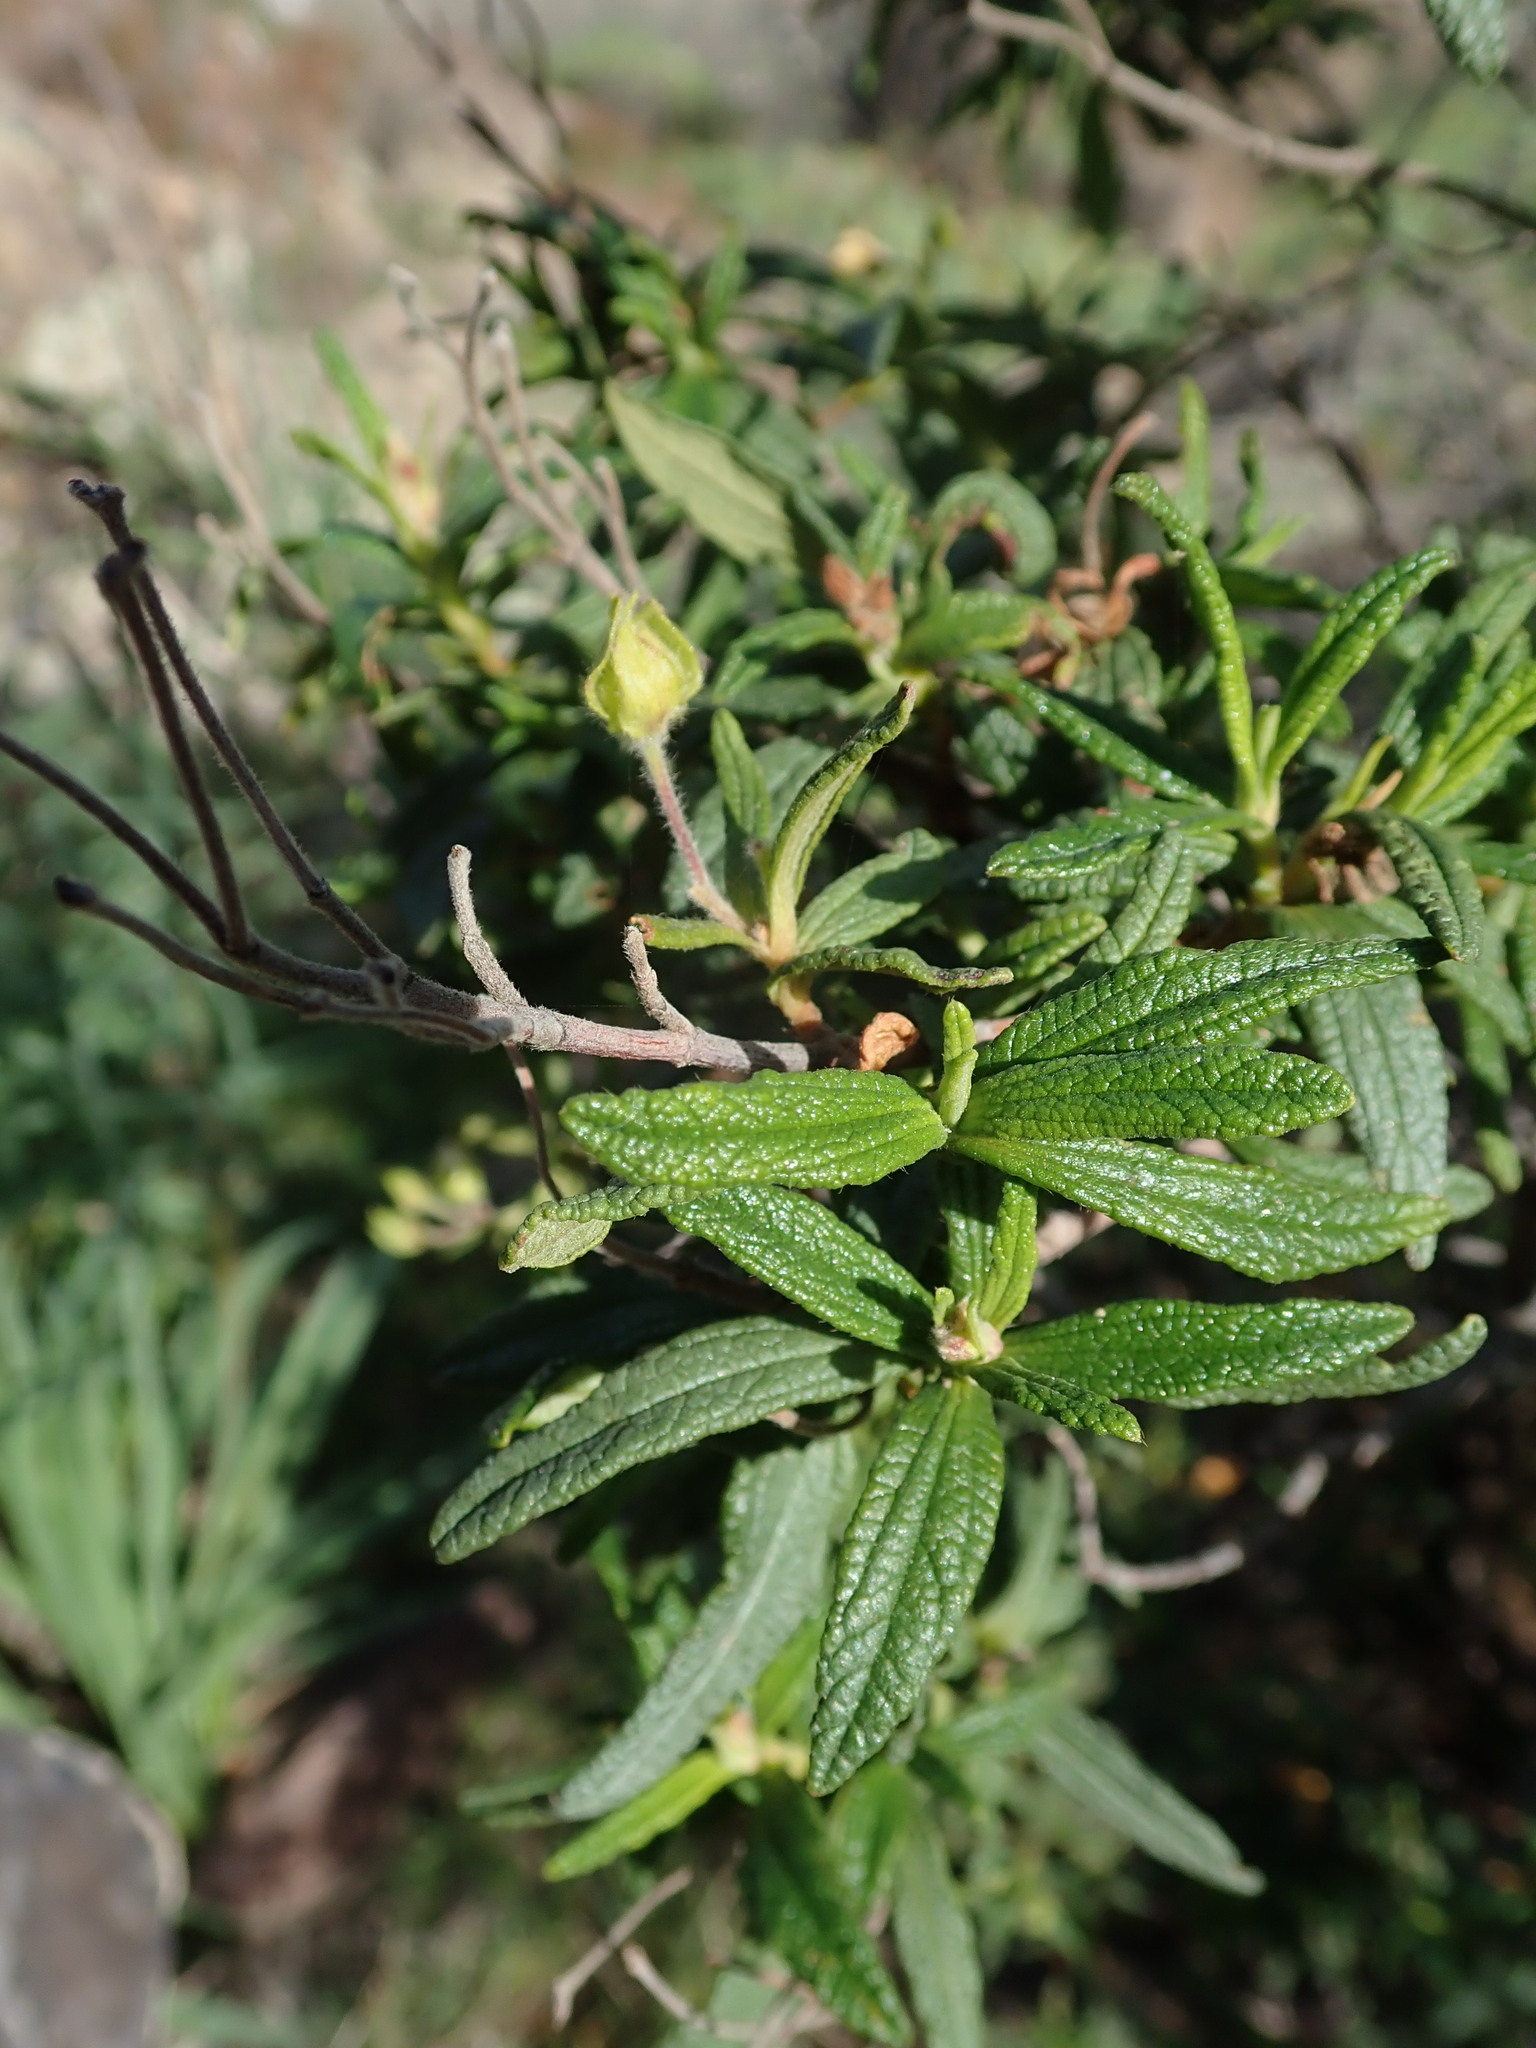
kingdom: Plantae
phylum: Tracheophyta
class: Magnoliopsida
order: Malvales
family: Cistaceae
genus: Cistus
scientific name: Cistus monspeliensis
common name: Montpelier cistus
